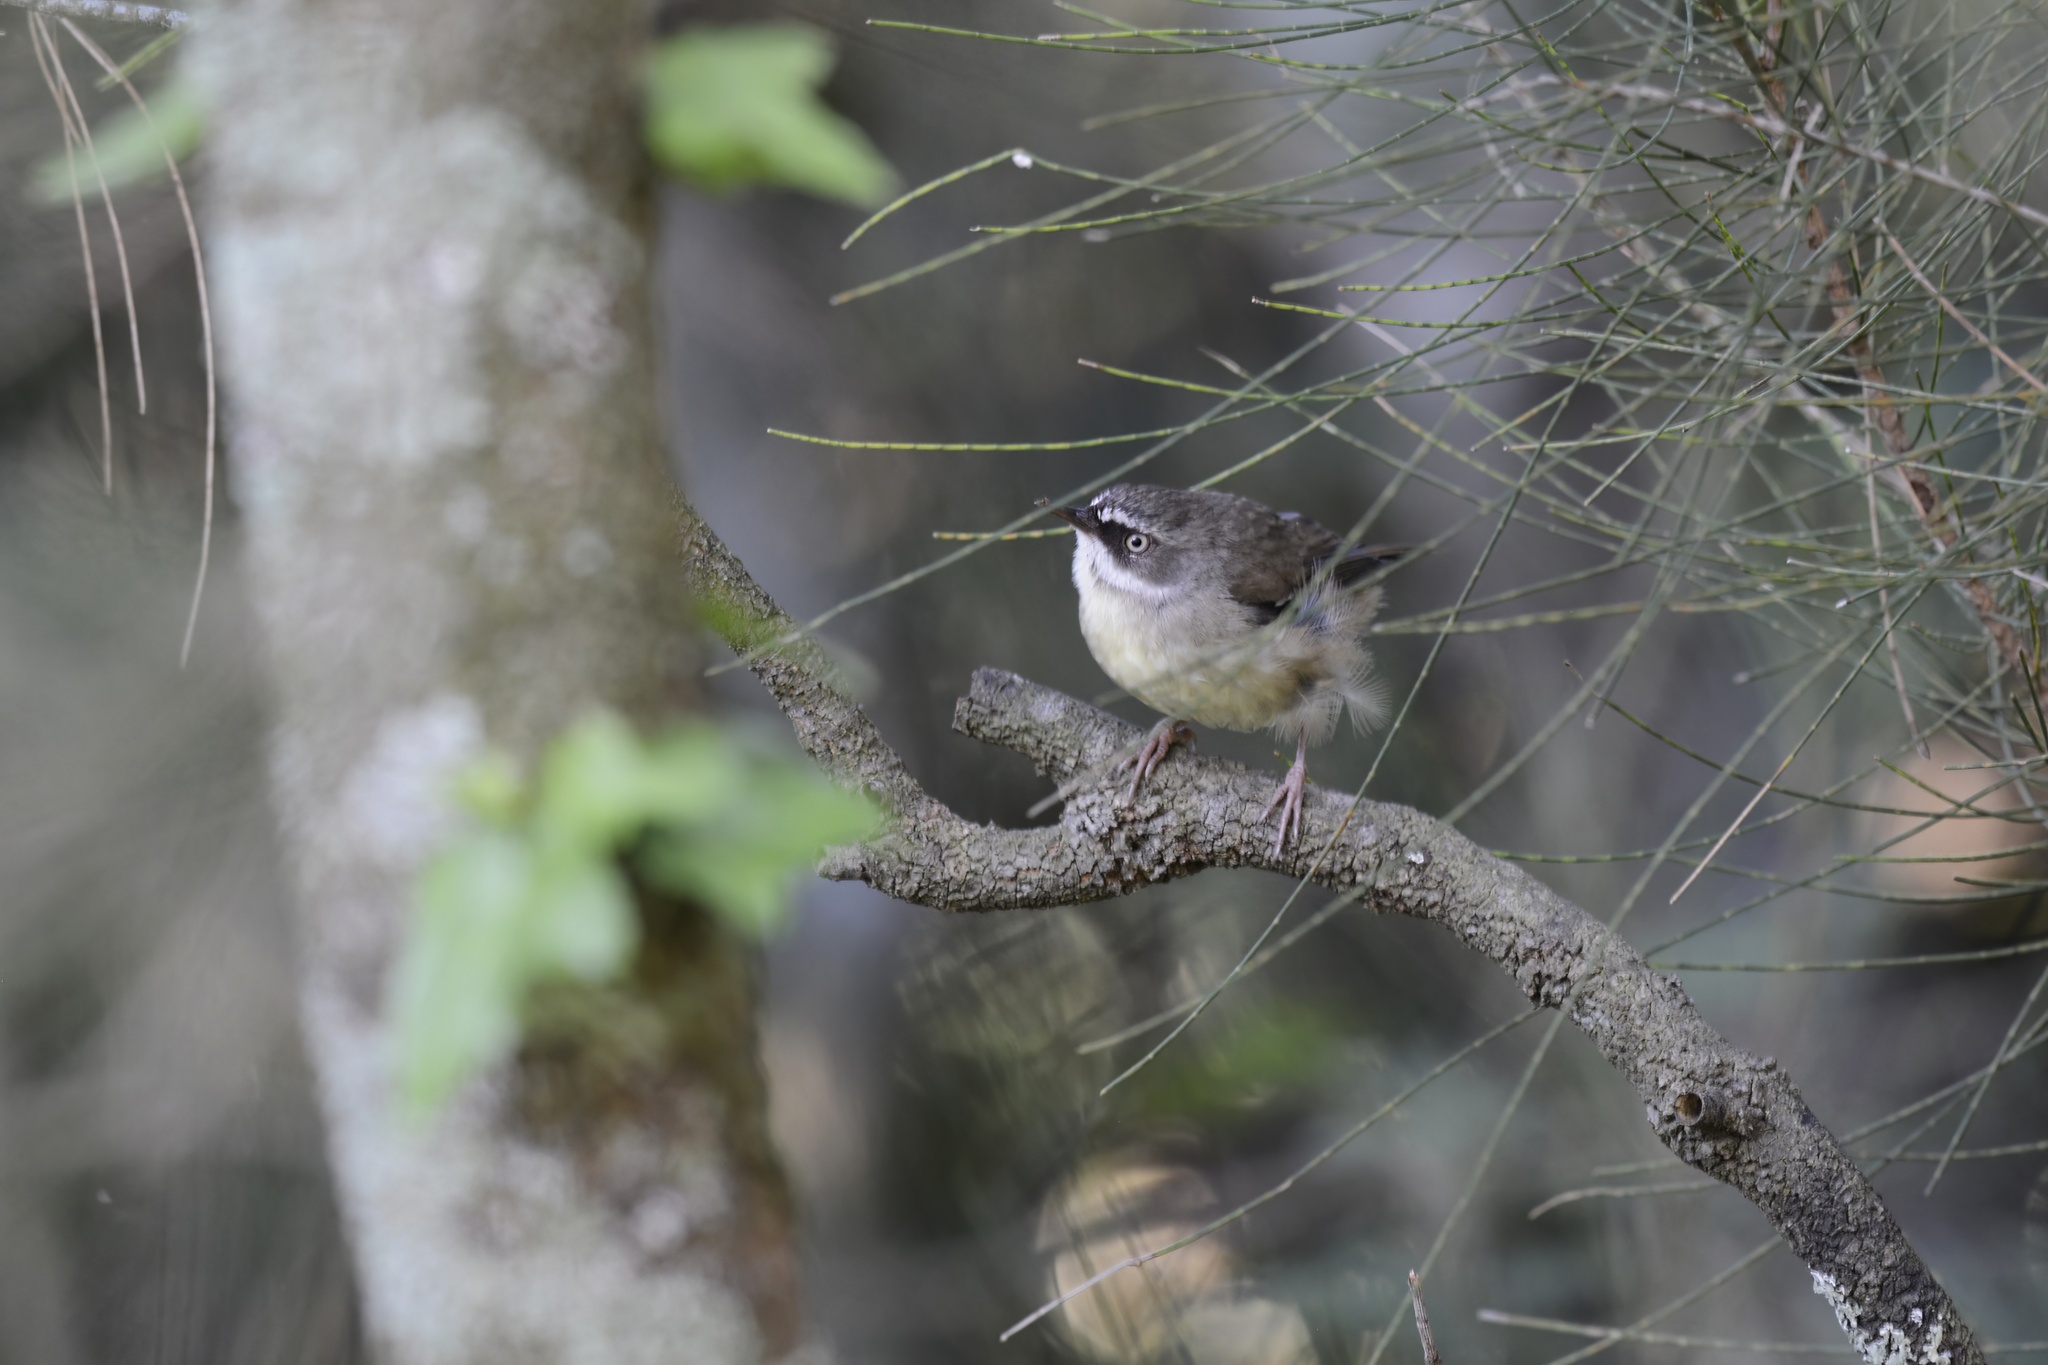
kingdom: Animalia
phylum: Chordata
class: Aves
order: Passeriformes
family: Acanthizidae
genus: Sericornis
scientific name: Sericornis frontalis
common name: White-browed scrubwren
